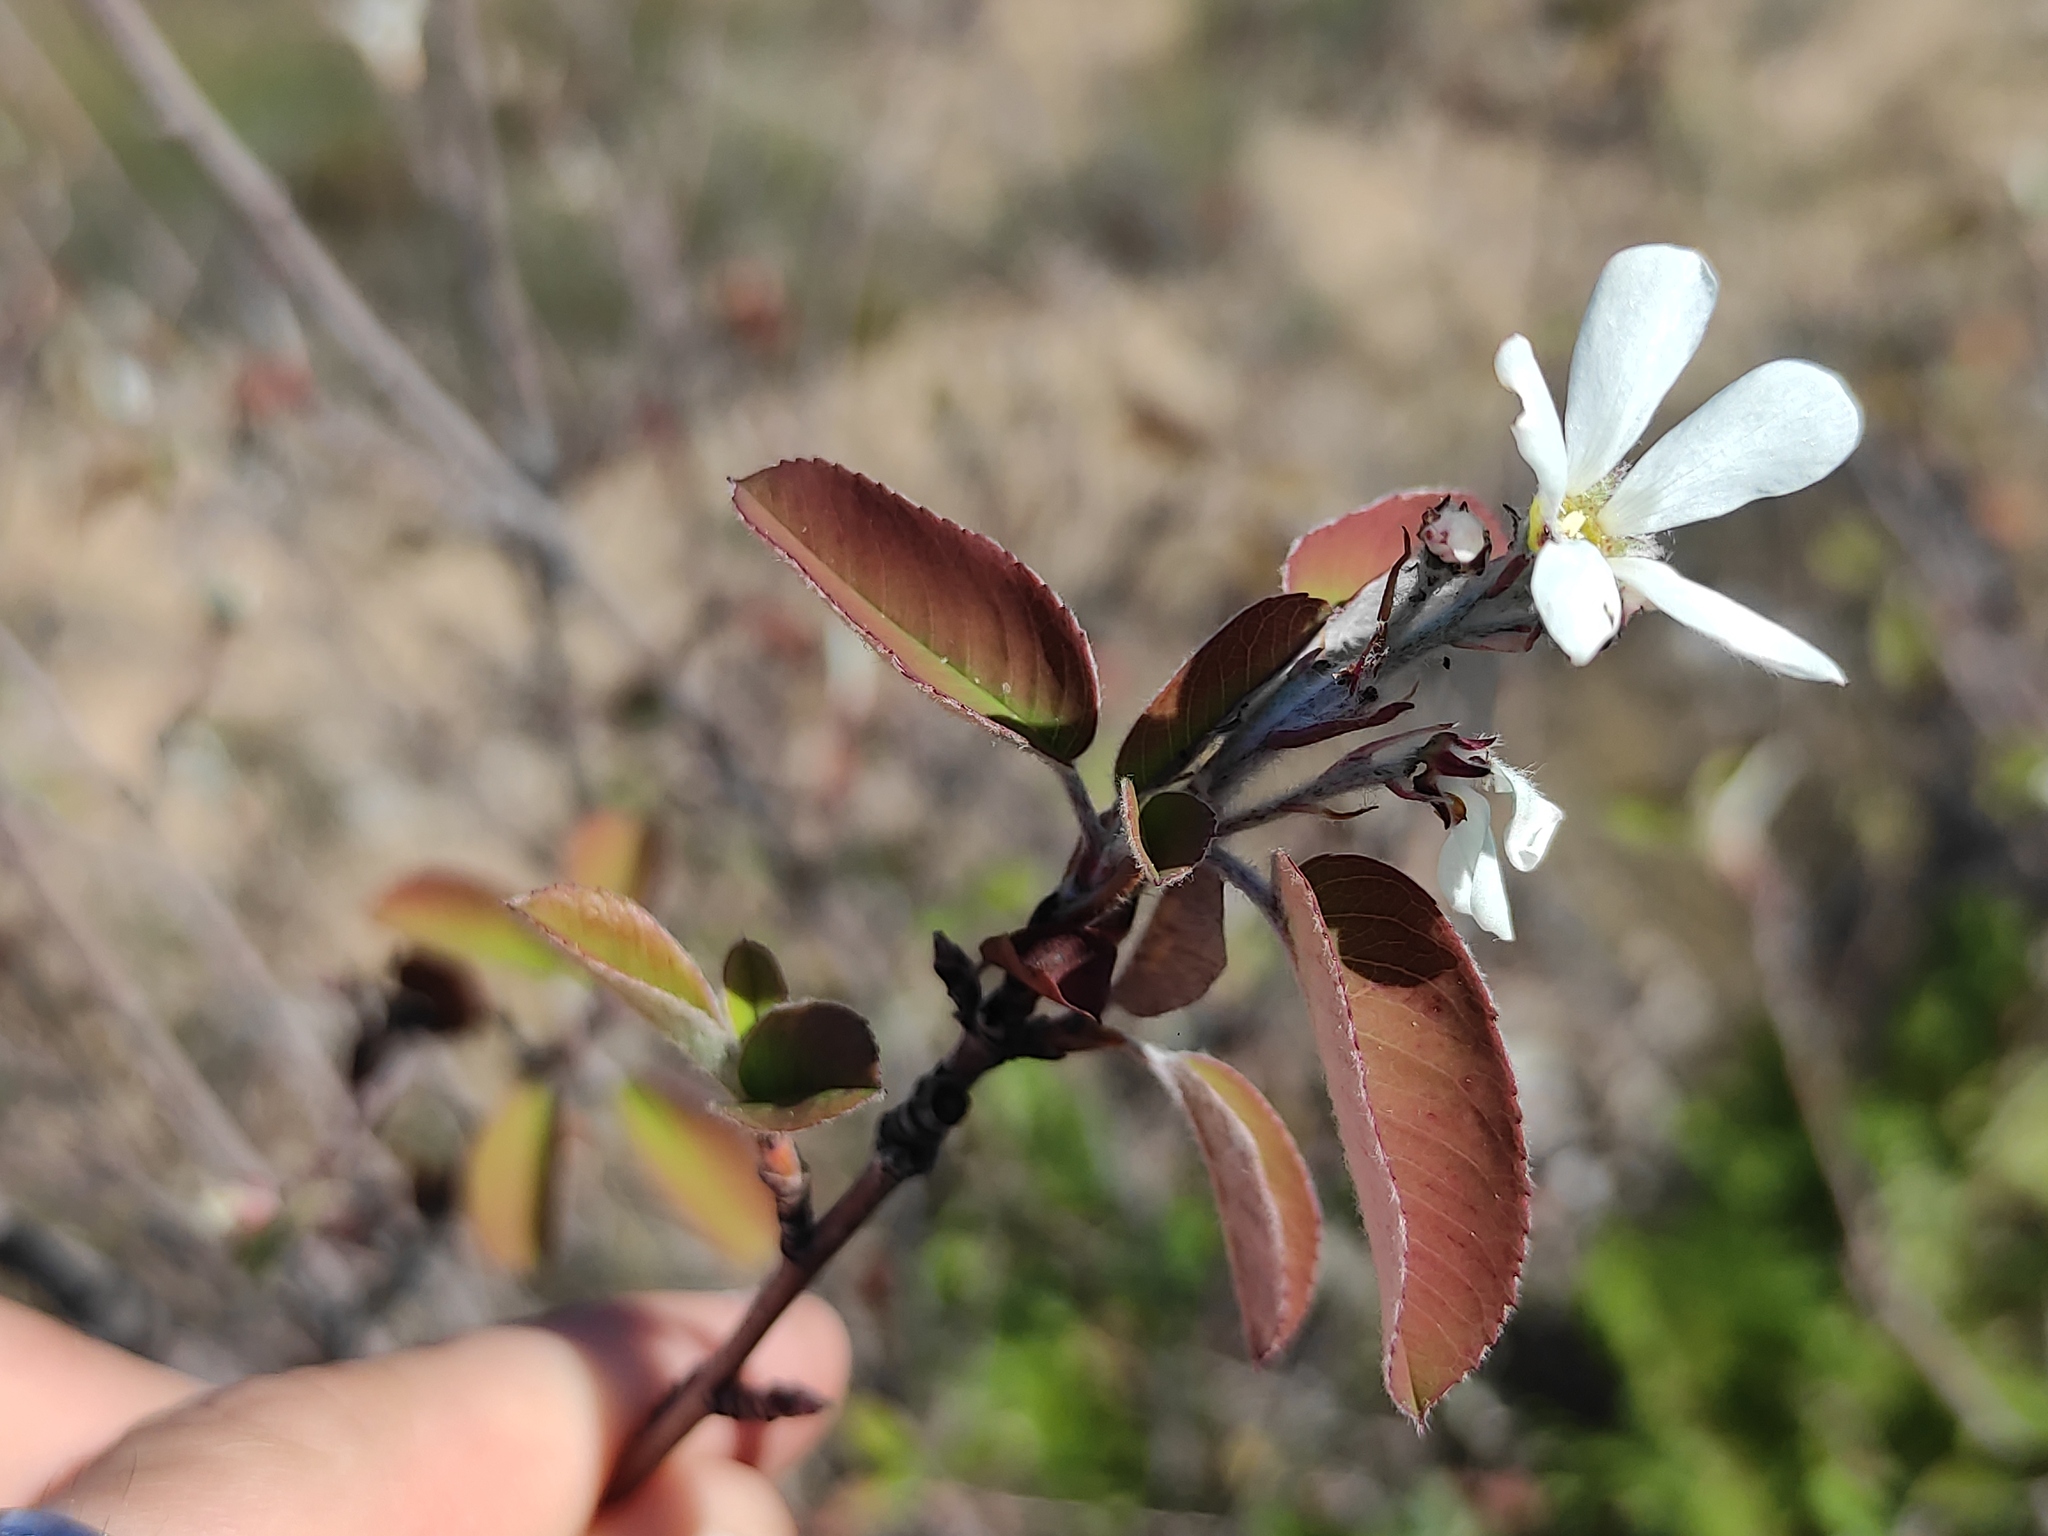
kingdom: Plantae
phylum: Tracheophyta
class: Magnoliopsida
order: Rosales
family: Rosaceae
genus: Amelanchier
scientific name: Amelanchier ovalis
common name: Serviceberry
